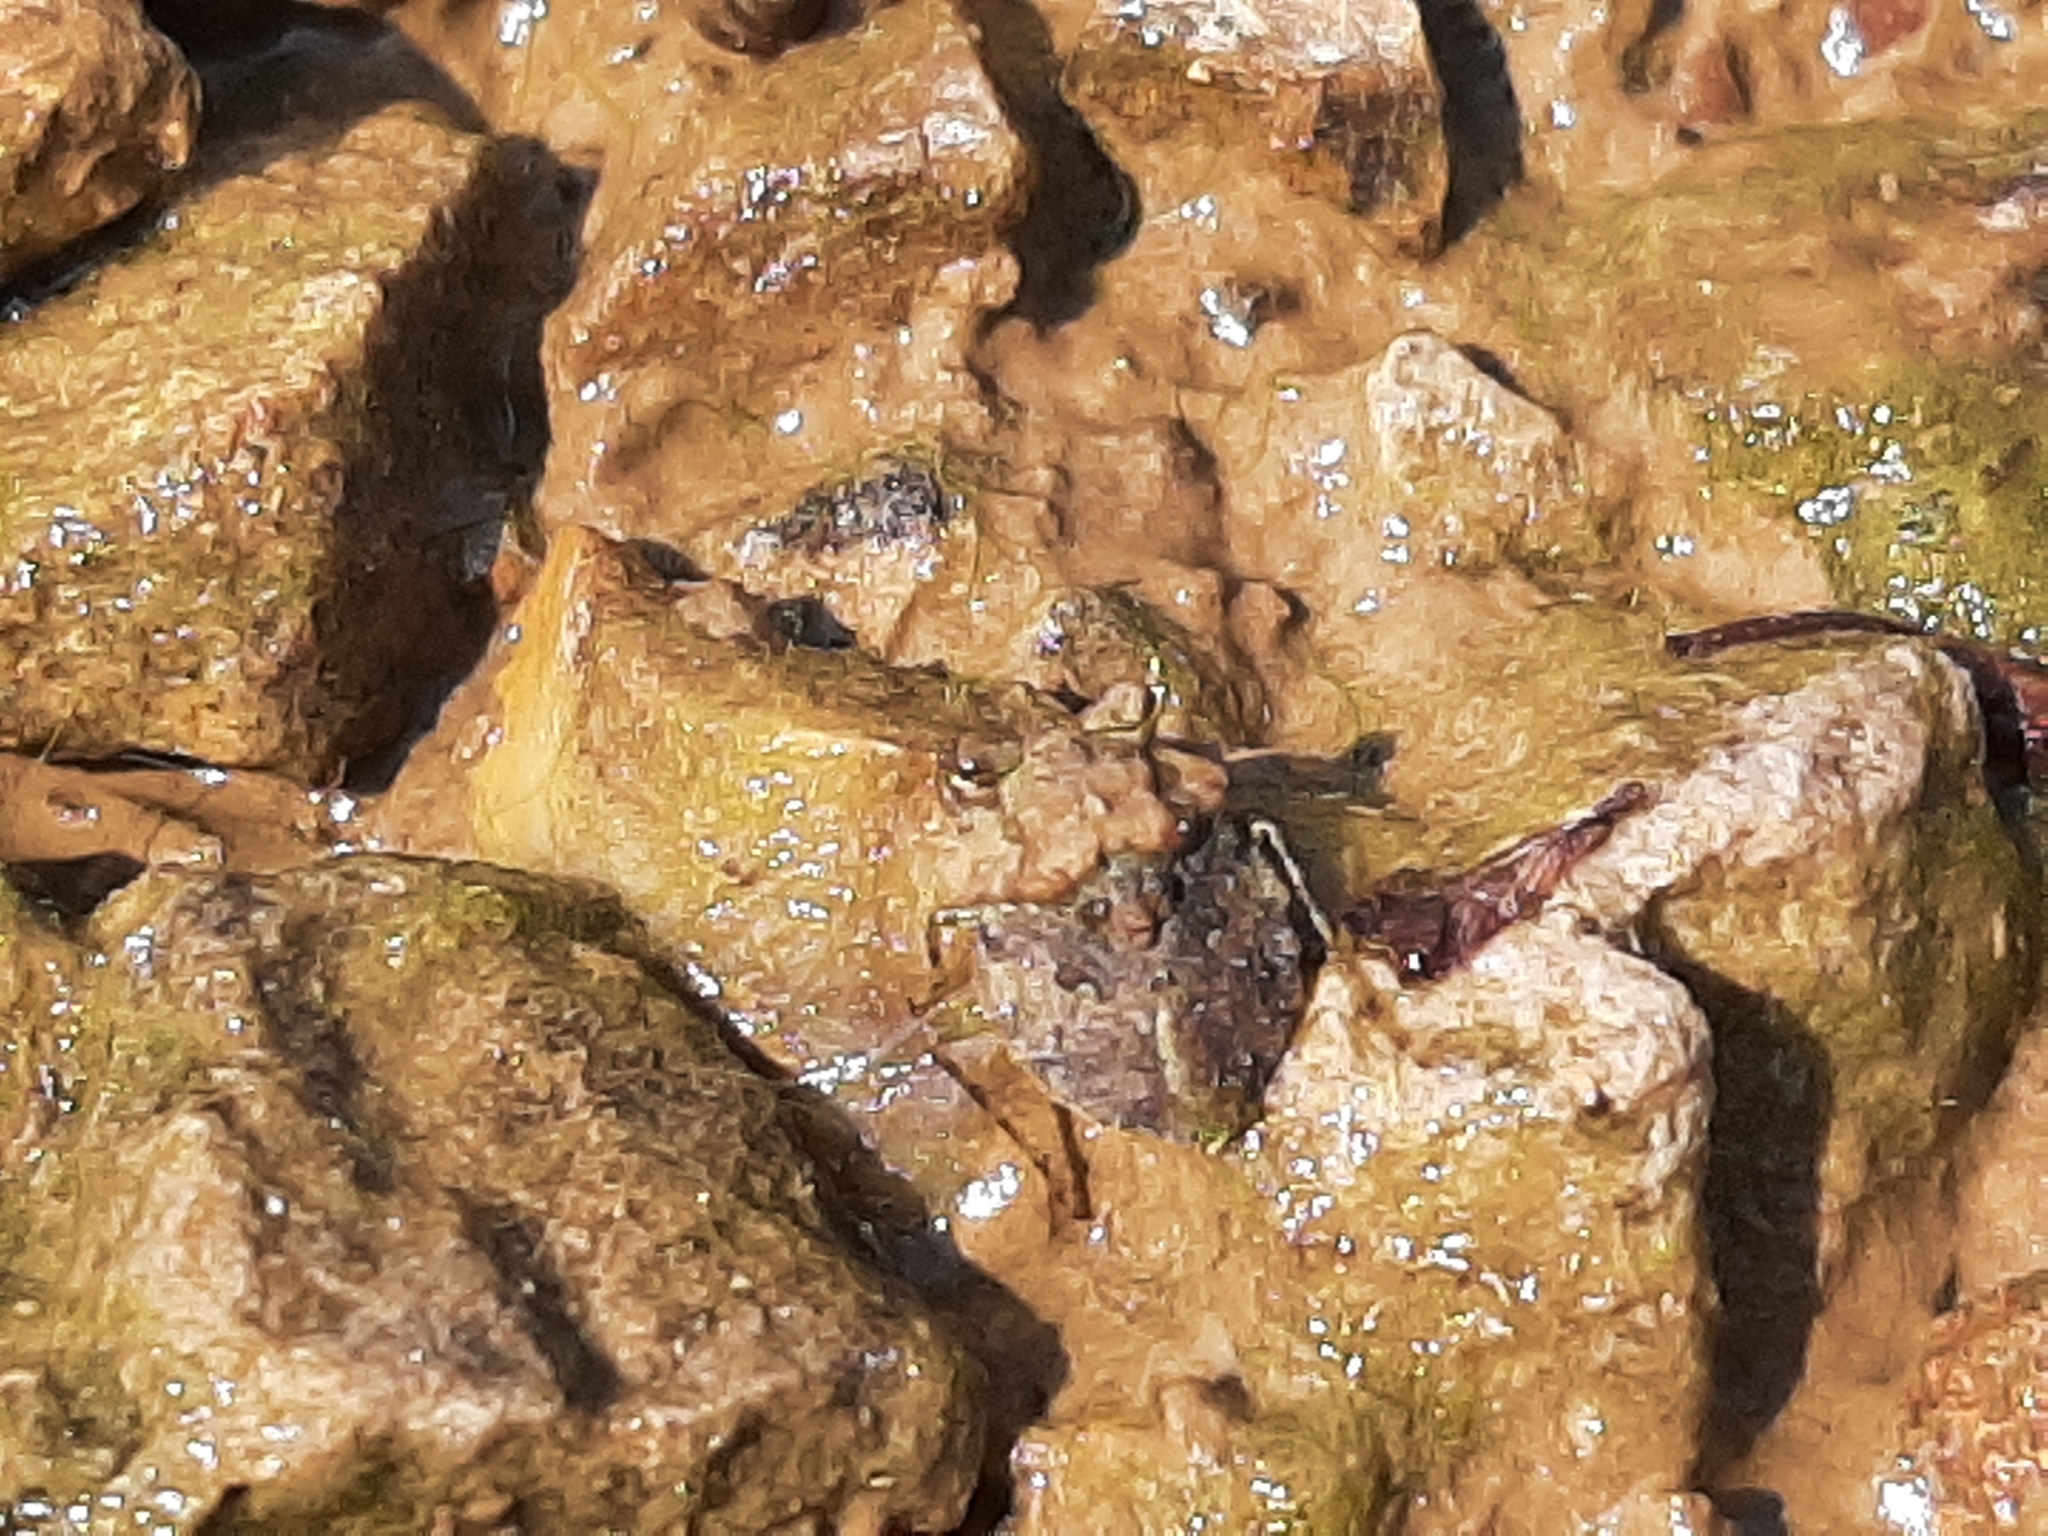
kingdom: Animalia
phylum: Arthropoda
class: Insecta
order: Hemiptera
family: Gelastocoridae
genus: Gelastocoris
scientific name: Gelastocoris oculatus
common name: Toad bug
